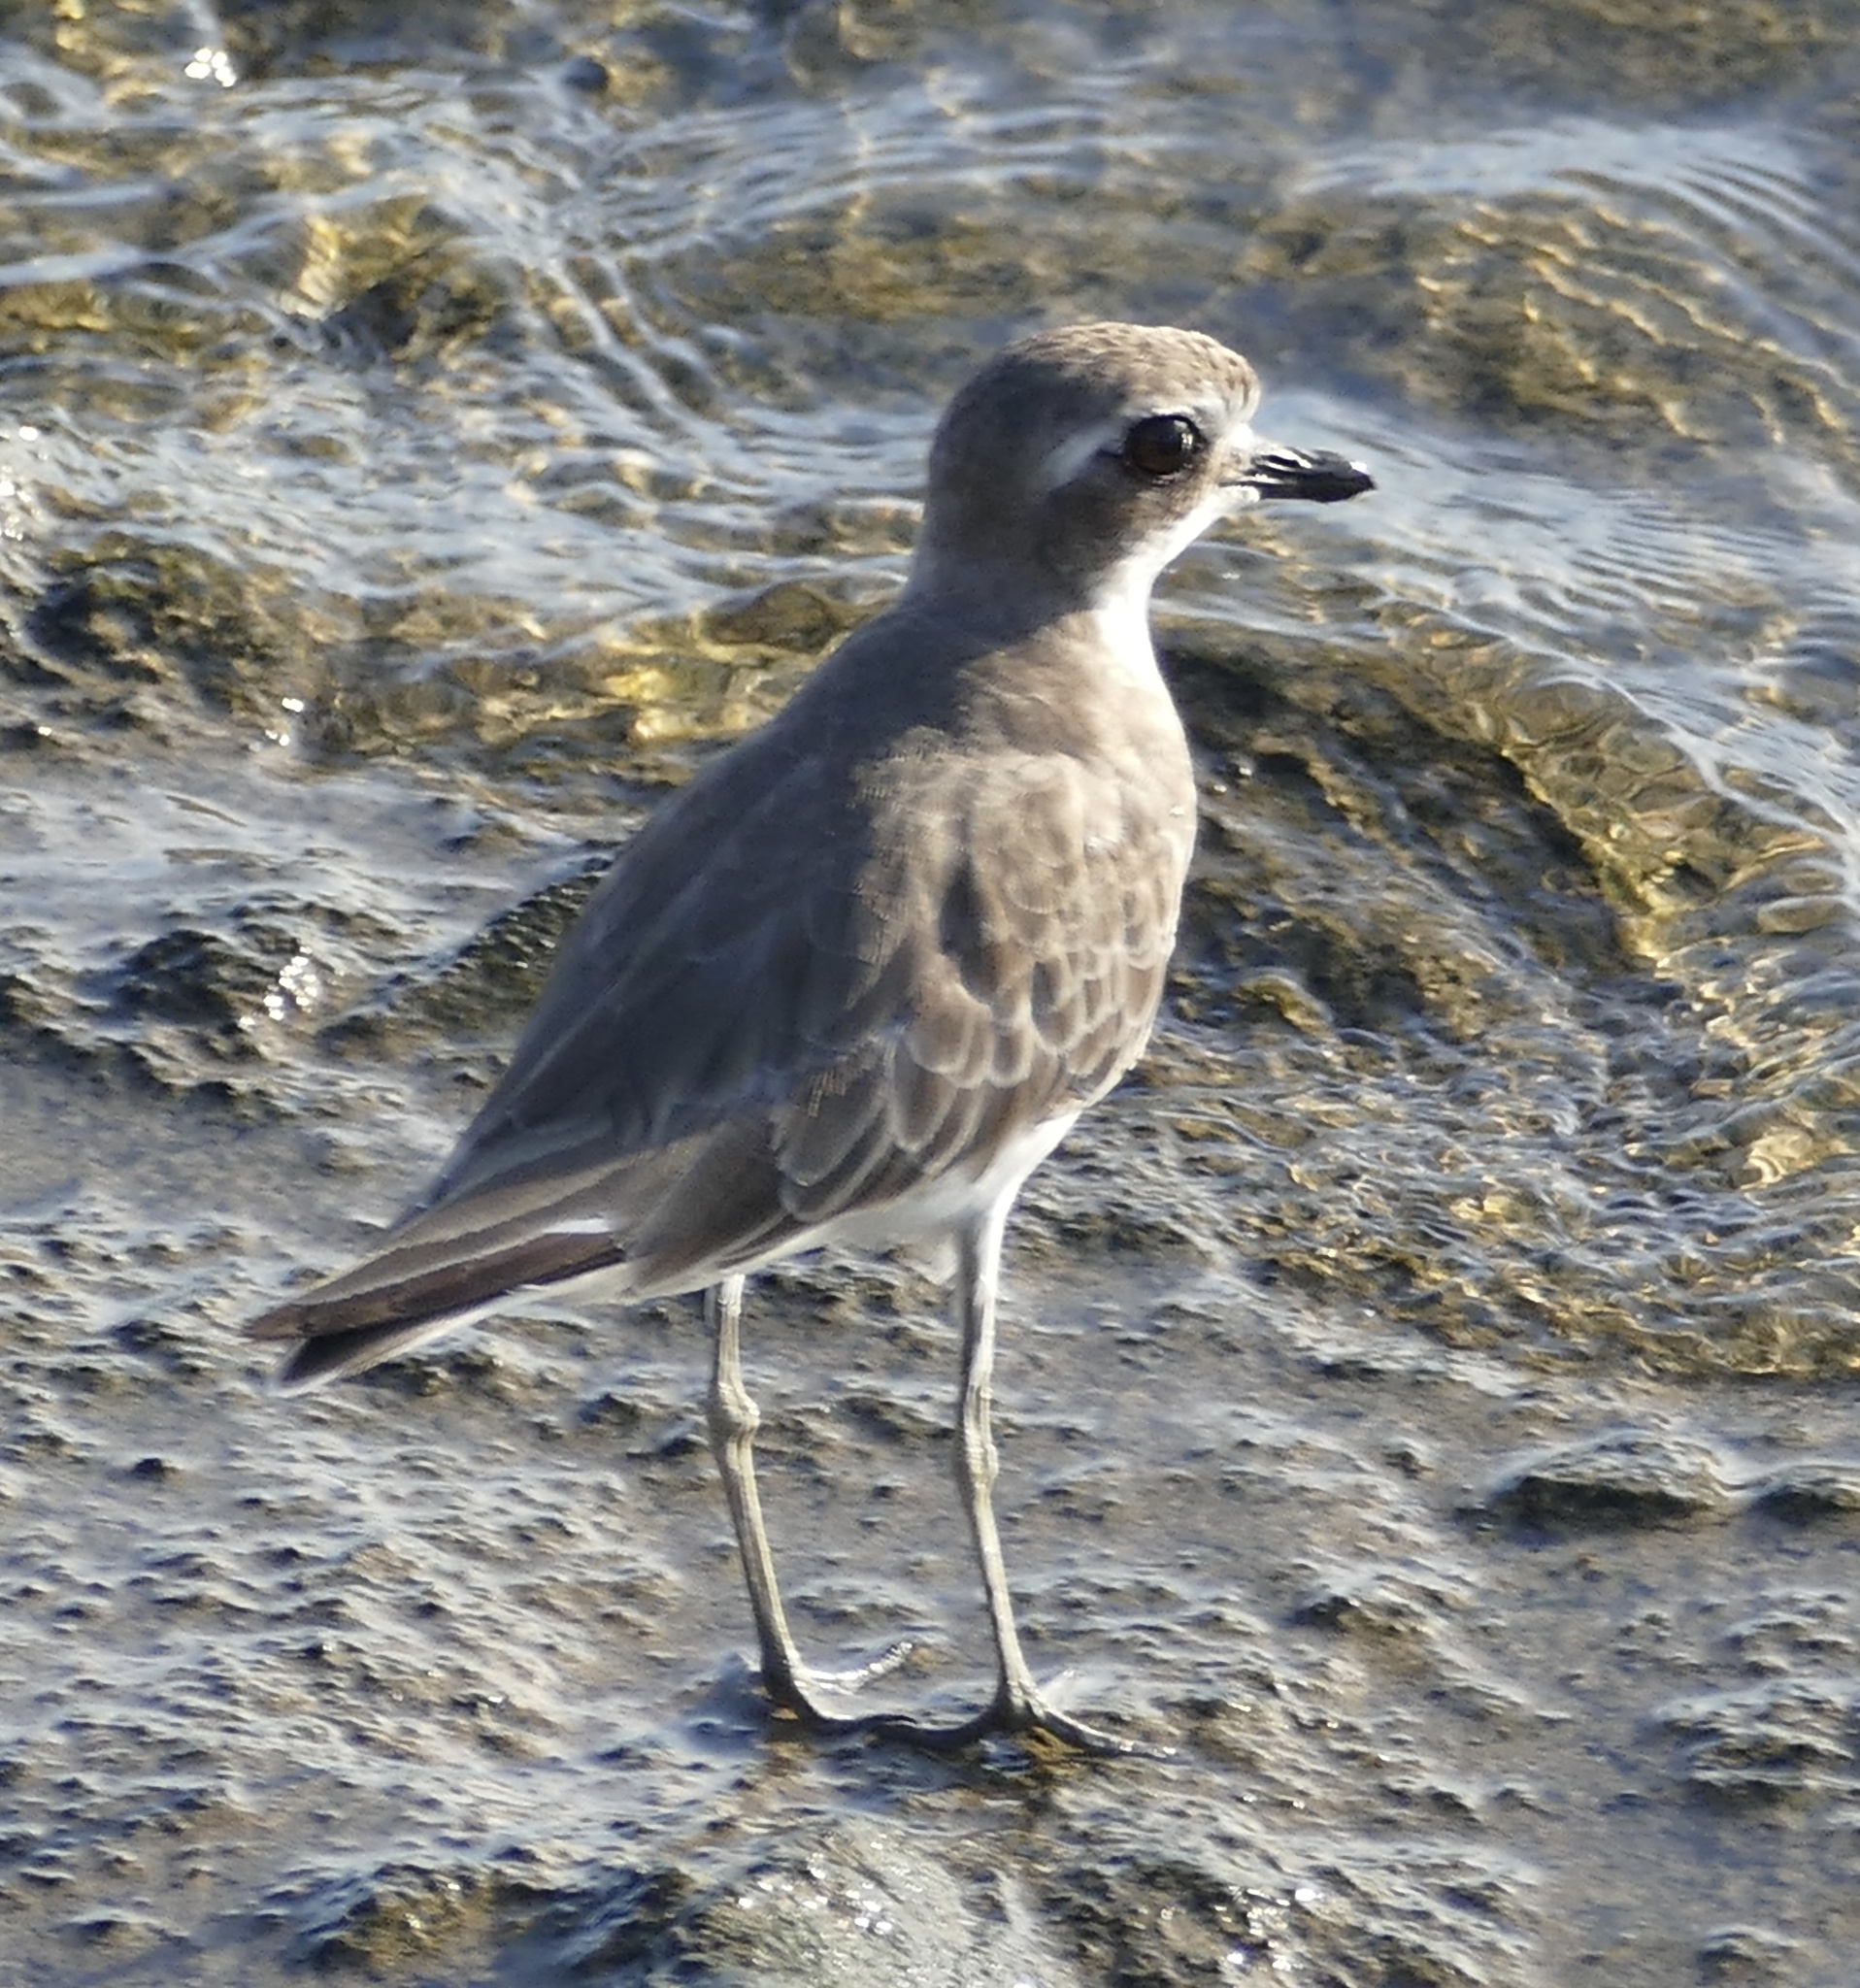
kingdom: Animalia
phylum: Chordata
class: Aves
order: Charadriiformes
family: Charadriidae
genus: Charadrius
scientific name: Charadrius leschenaultii
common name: Greater sand plover
